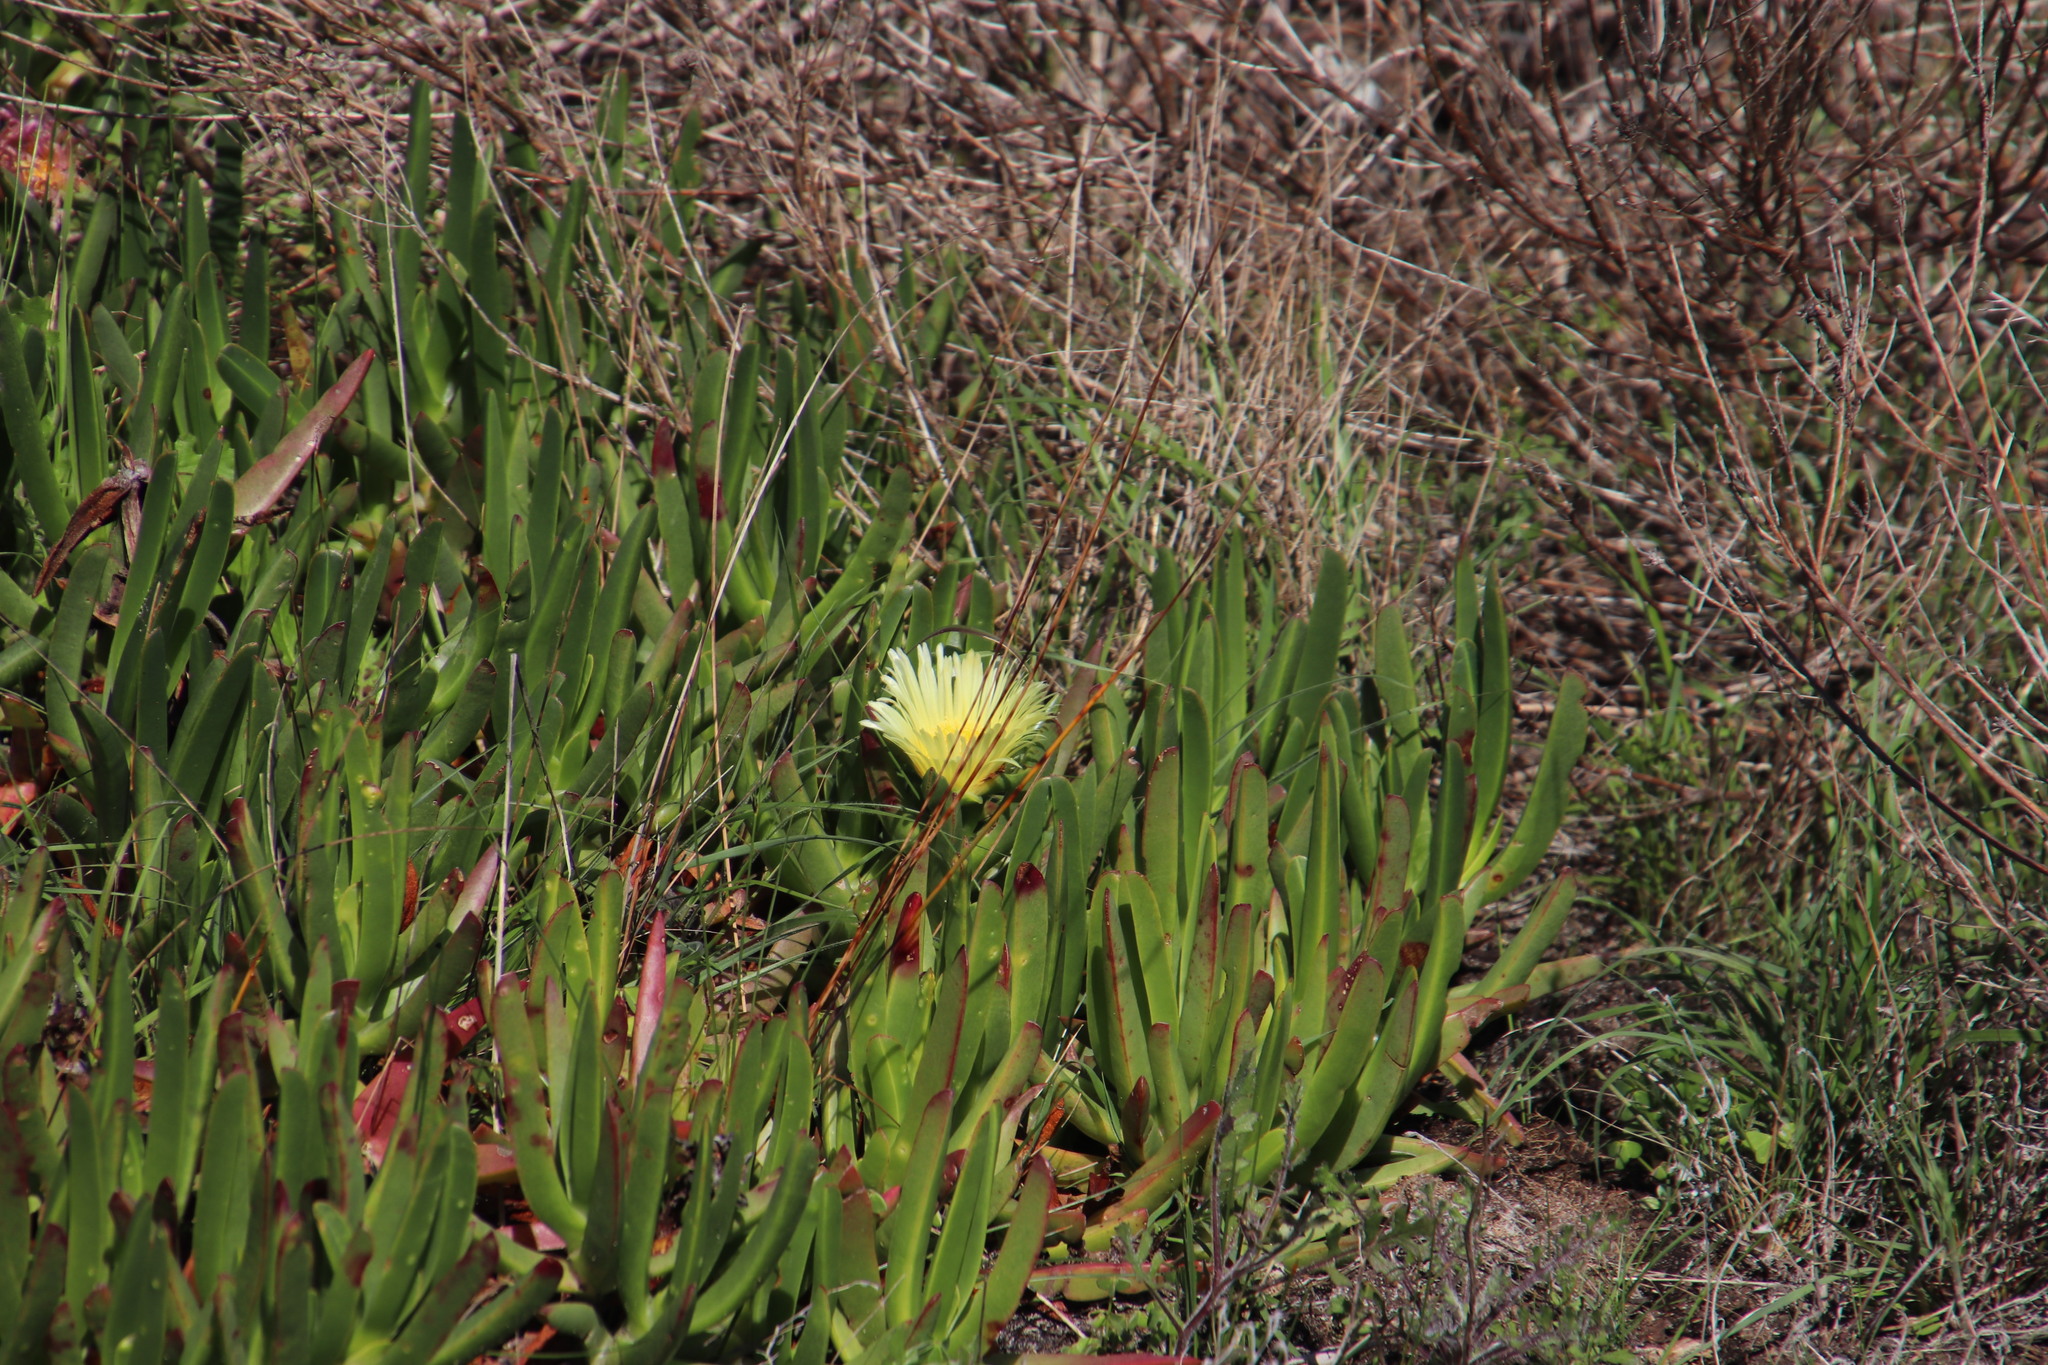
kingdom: Plantae
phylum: Tracheophyta
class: Magnoliopsida
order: Caryophyllales
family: Aizoaceae
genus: Carpobrotus
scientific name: Carpobrotus edulis
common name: Hottentot-fig
